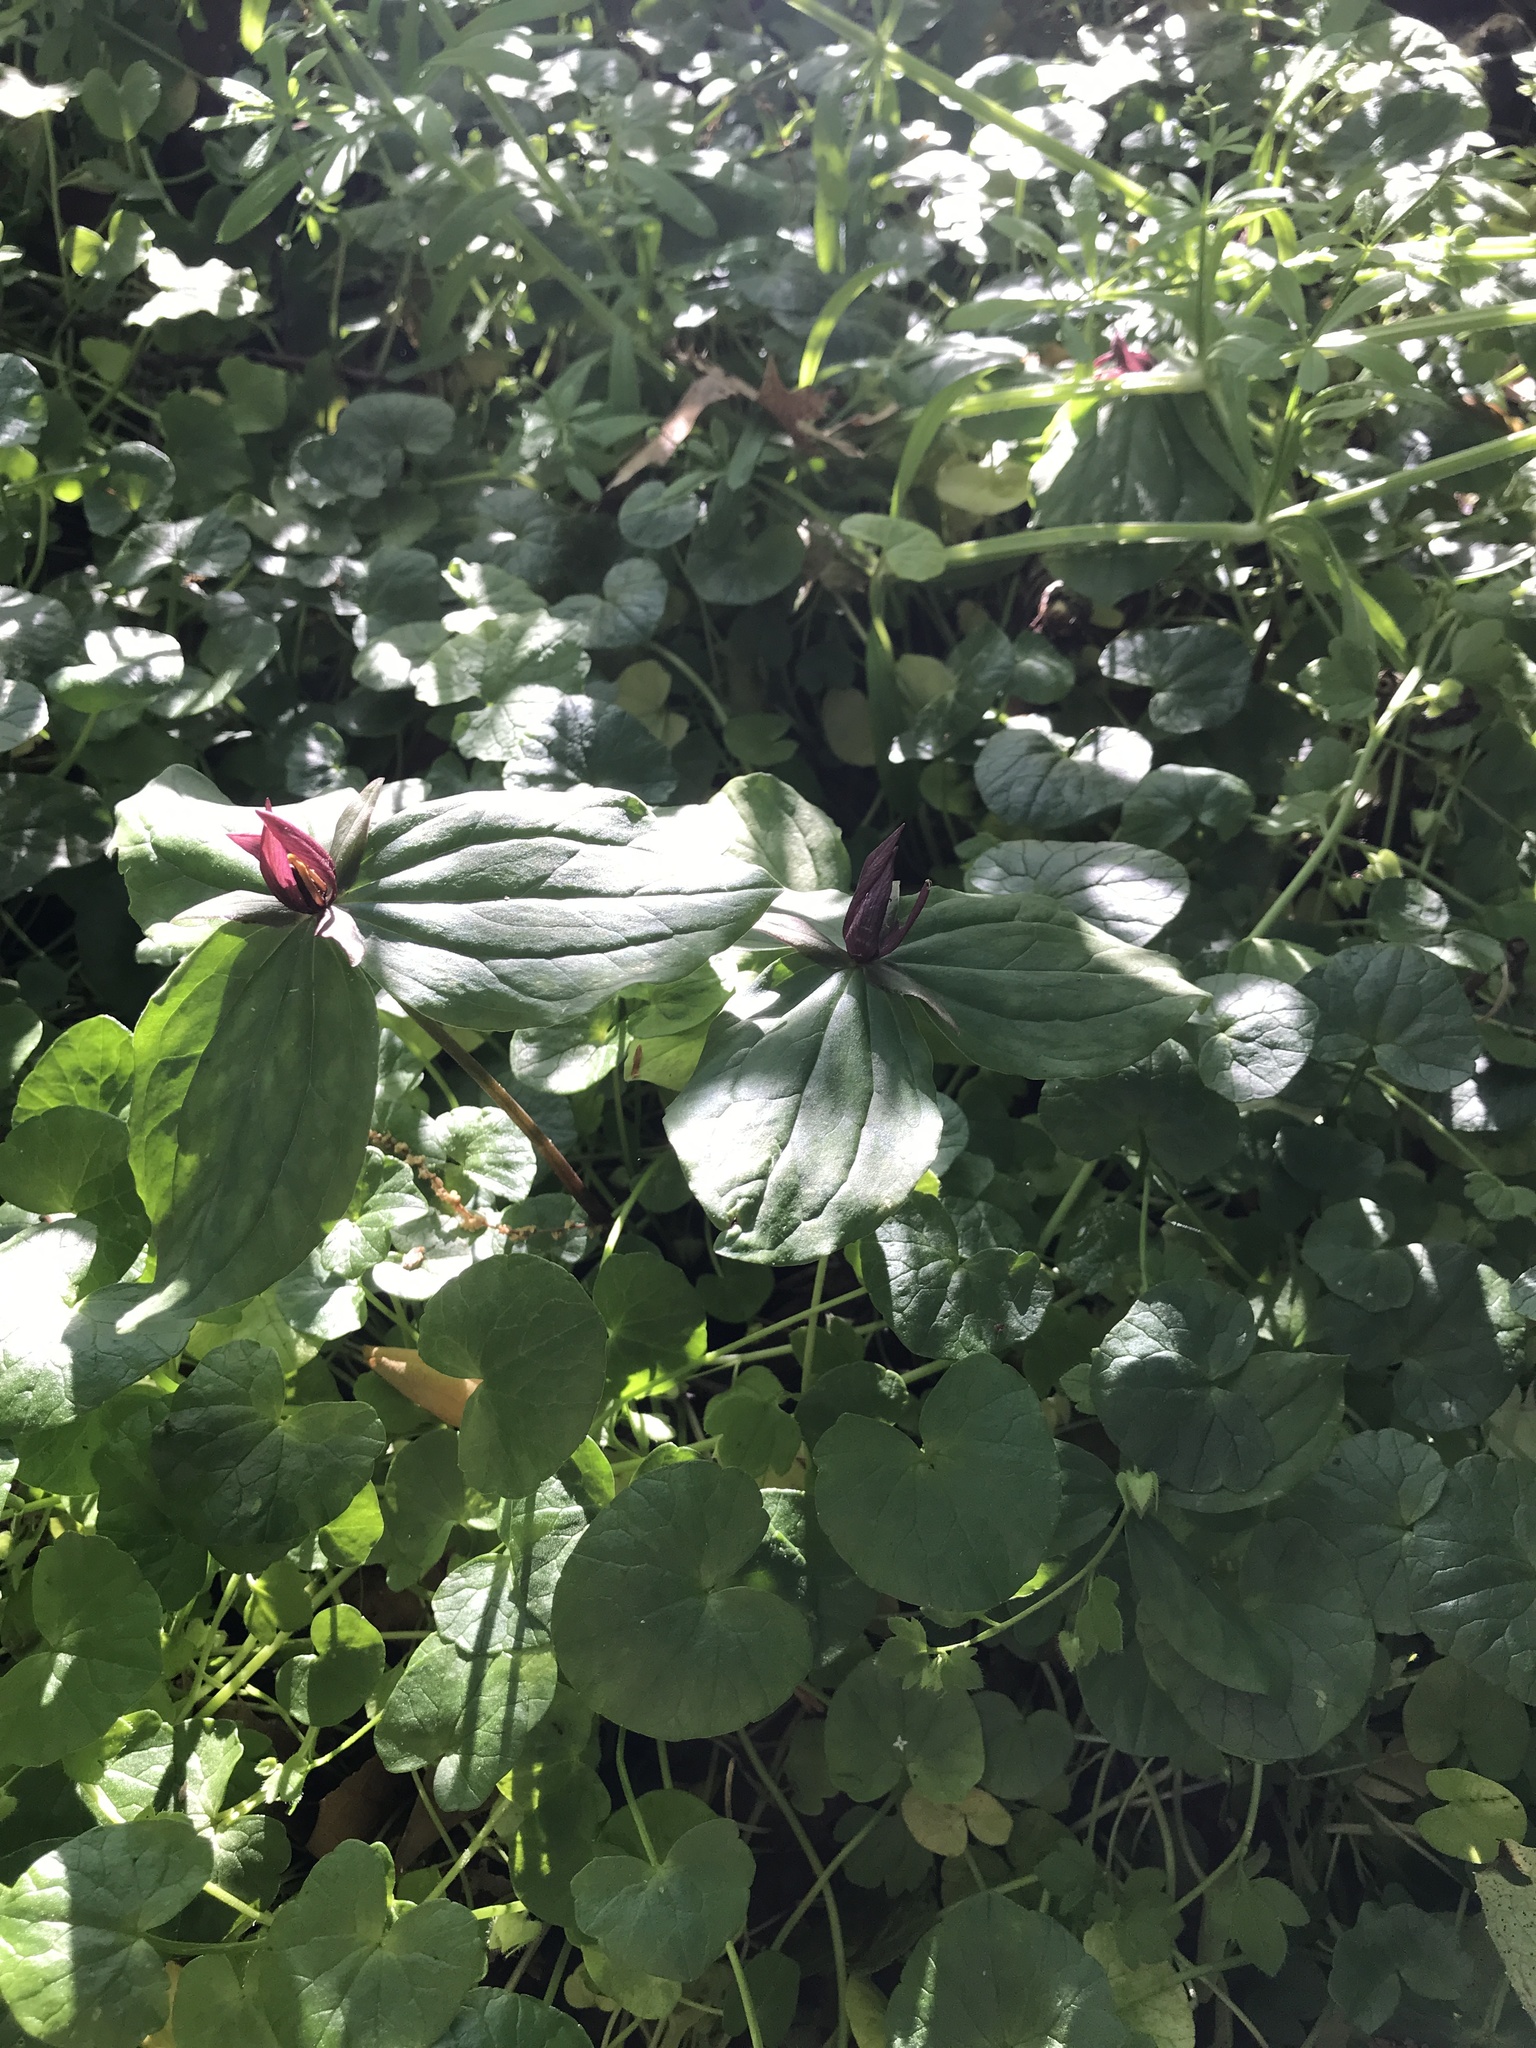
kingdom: Plantae
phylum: Tracheophyta
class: Liliopsida
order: Liliales
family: Melanthiaceae
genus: Trillium
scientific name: Trillium sessile
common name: Sessile trillium
